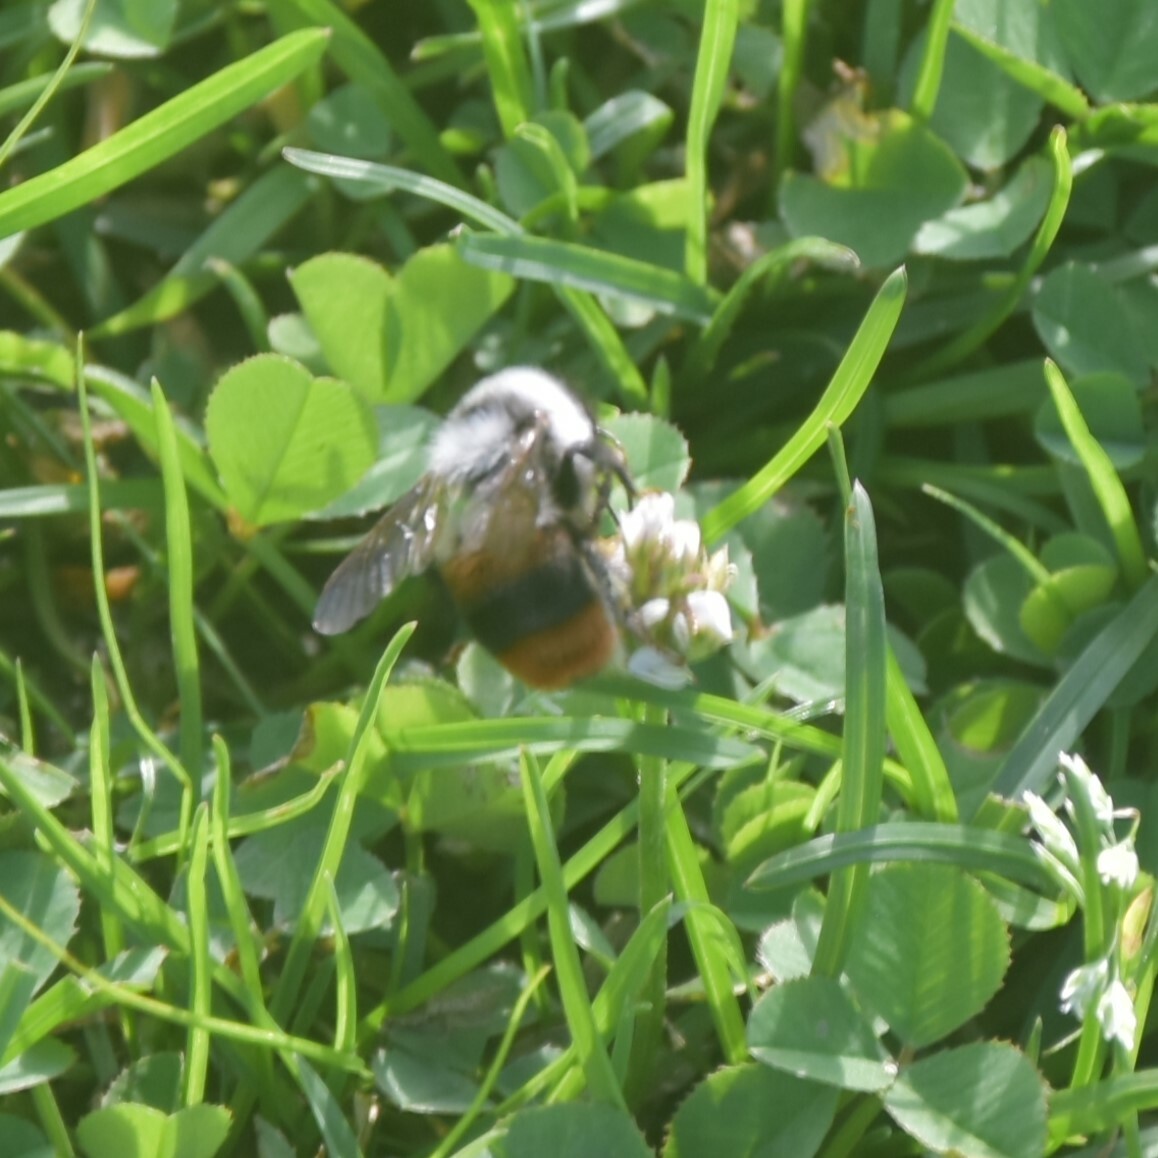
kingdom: Animalia
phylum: Arthropoda
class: Insecta
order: Hymenoptera
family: Apidae
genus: Bombus
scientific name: Bombus tunicatus
